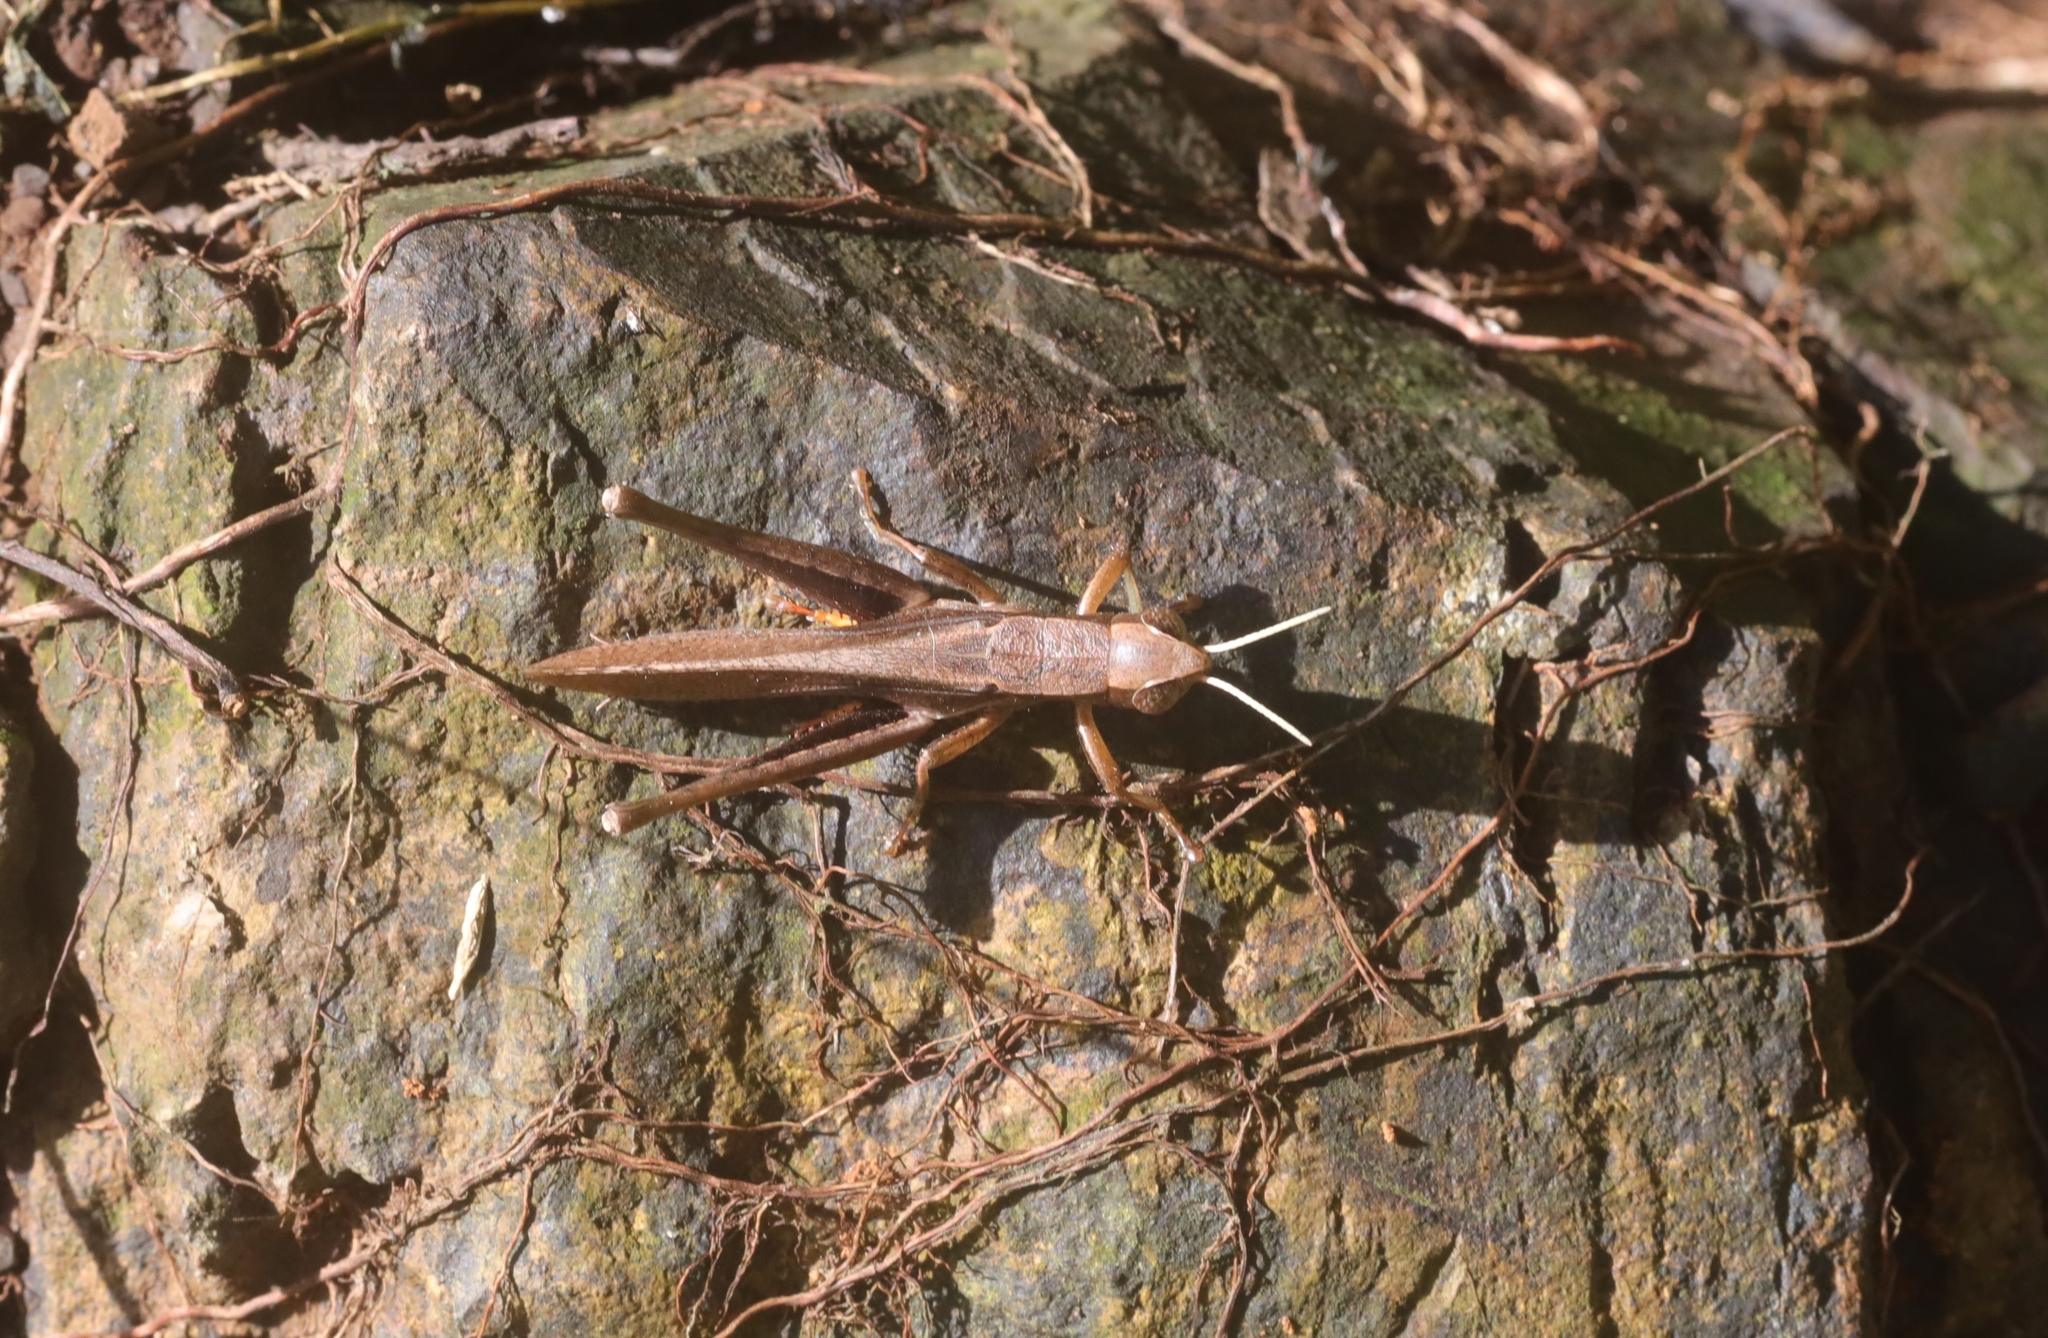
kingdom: Animalia
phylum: Arthropoda
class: Insecta
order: Orthoptera
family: Acrididae
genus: Oraistes
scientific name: Oraistes luridus
